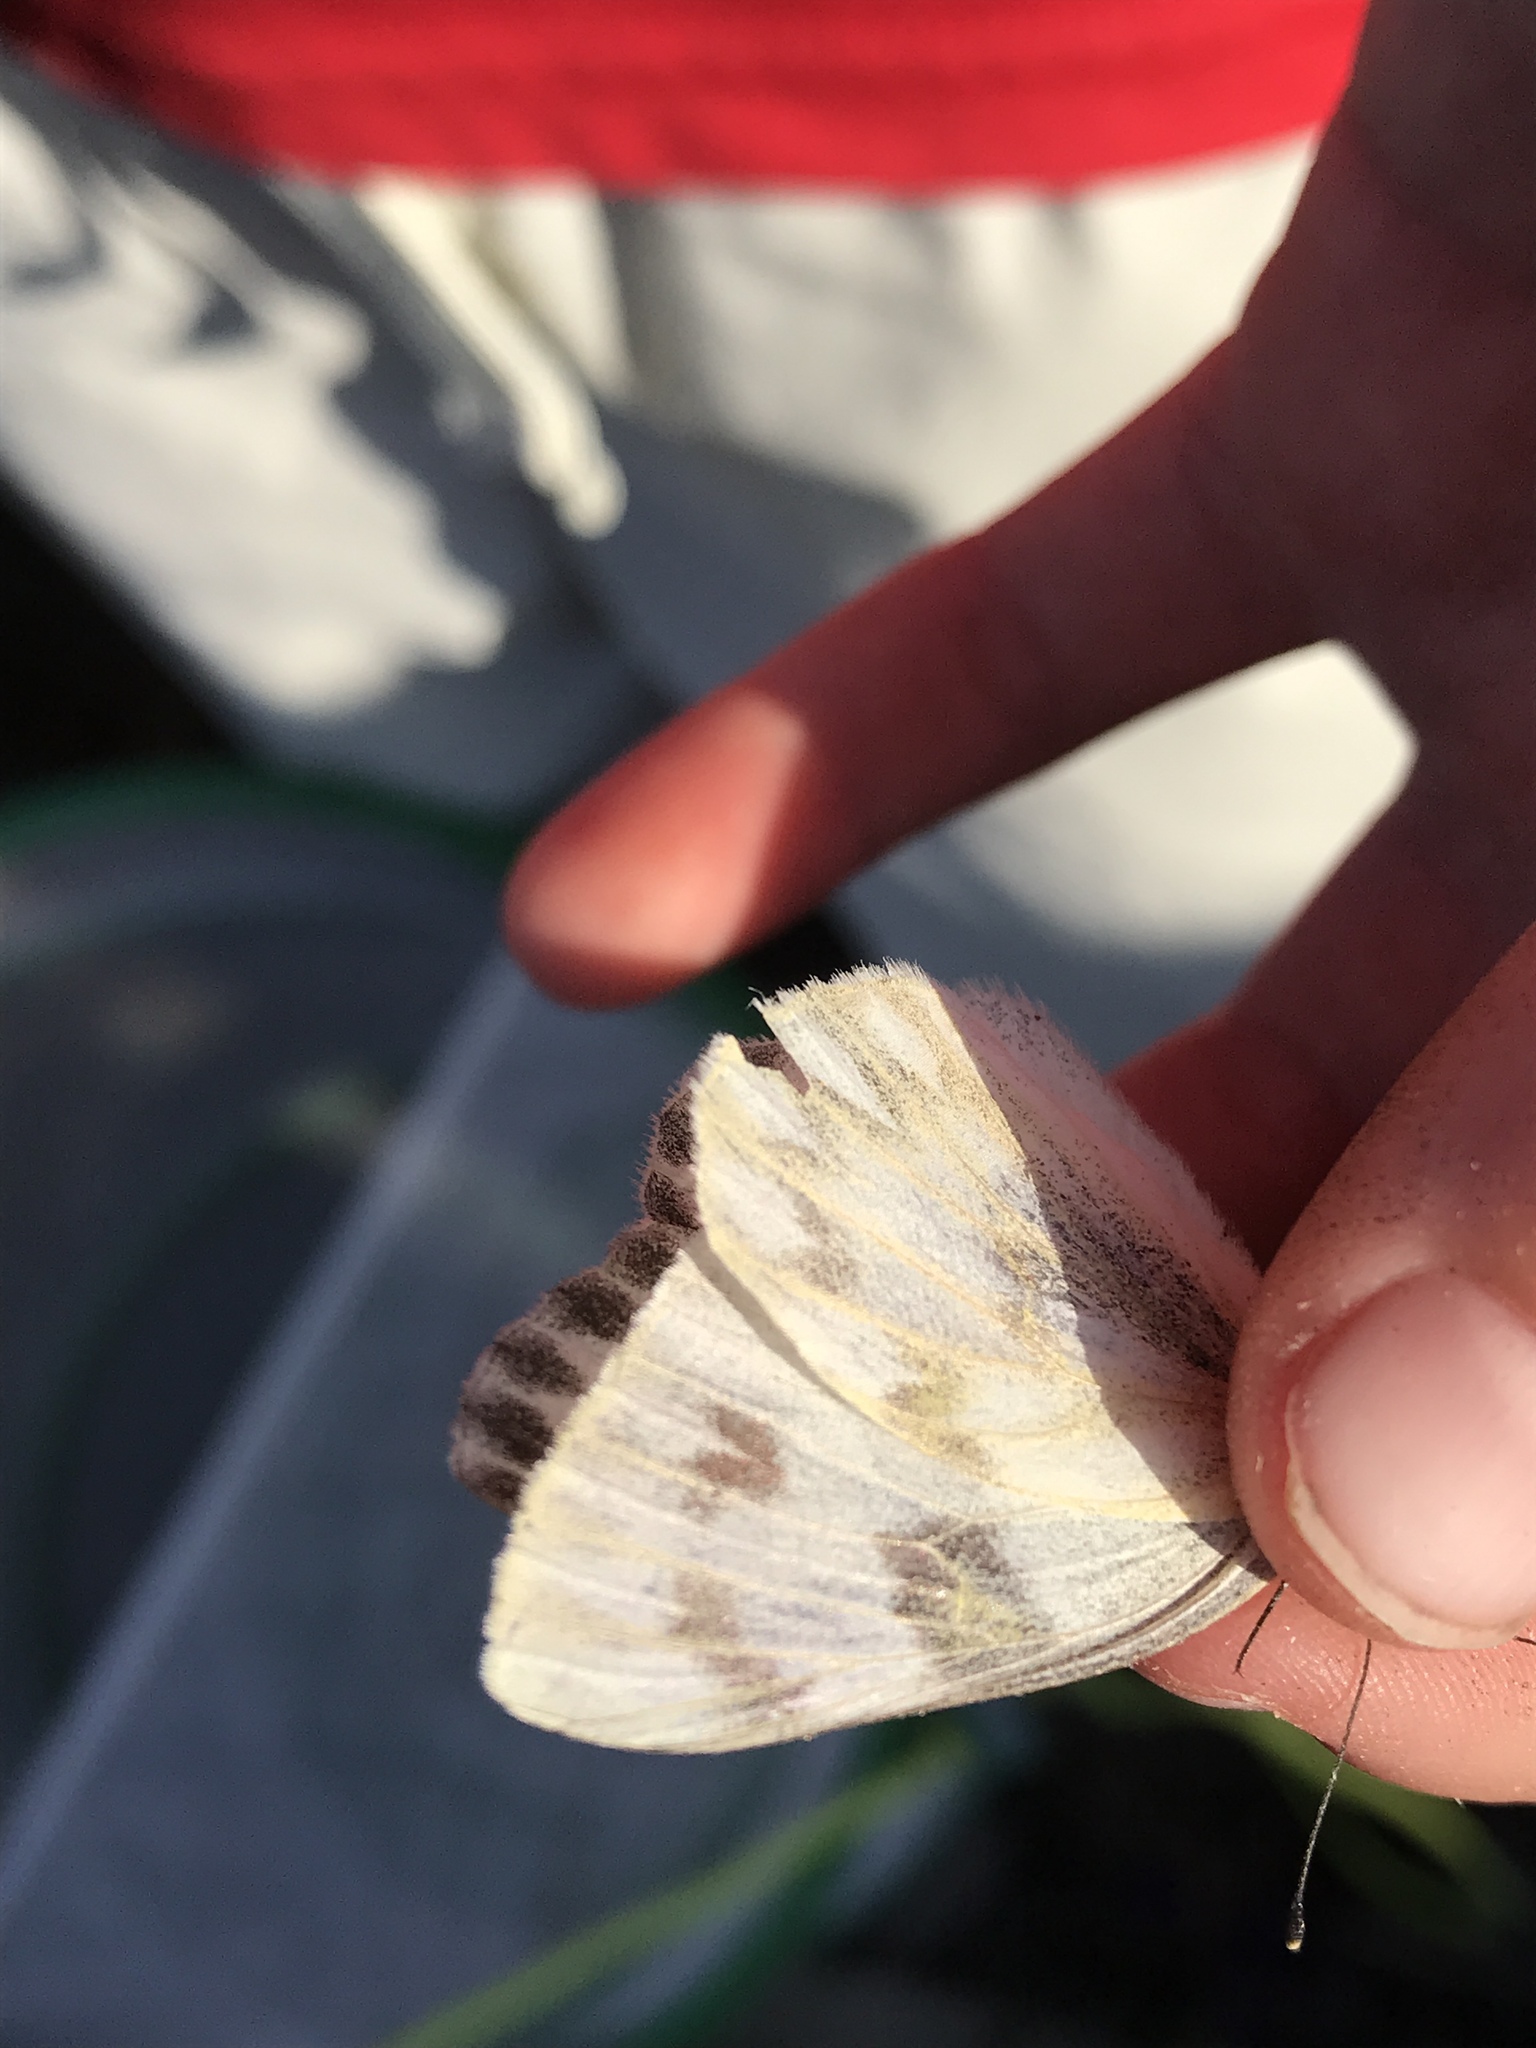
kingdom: Animalia
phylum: Arthropoda
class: Insecta
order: Lepidoptera
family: Pieridae
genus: Pontia
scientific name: Pontia protodice
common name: Checkered white
